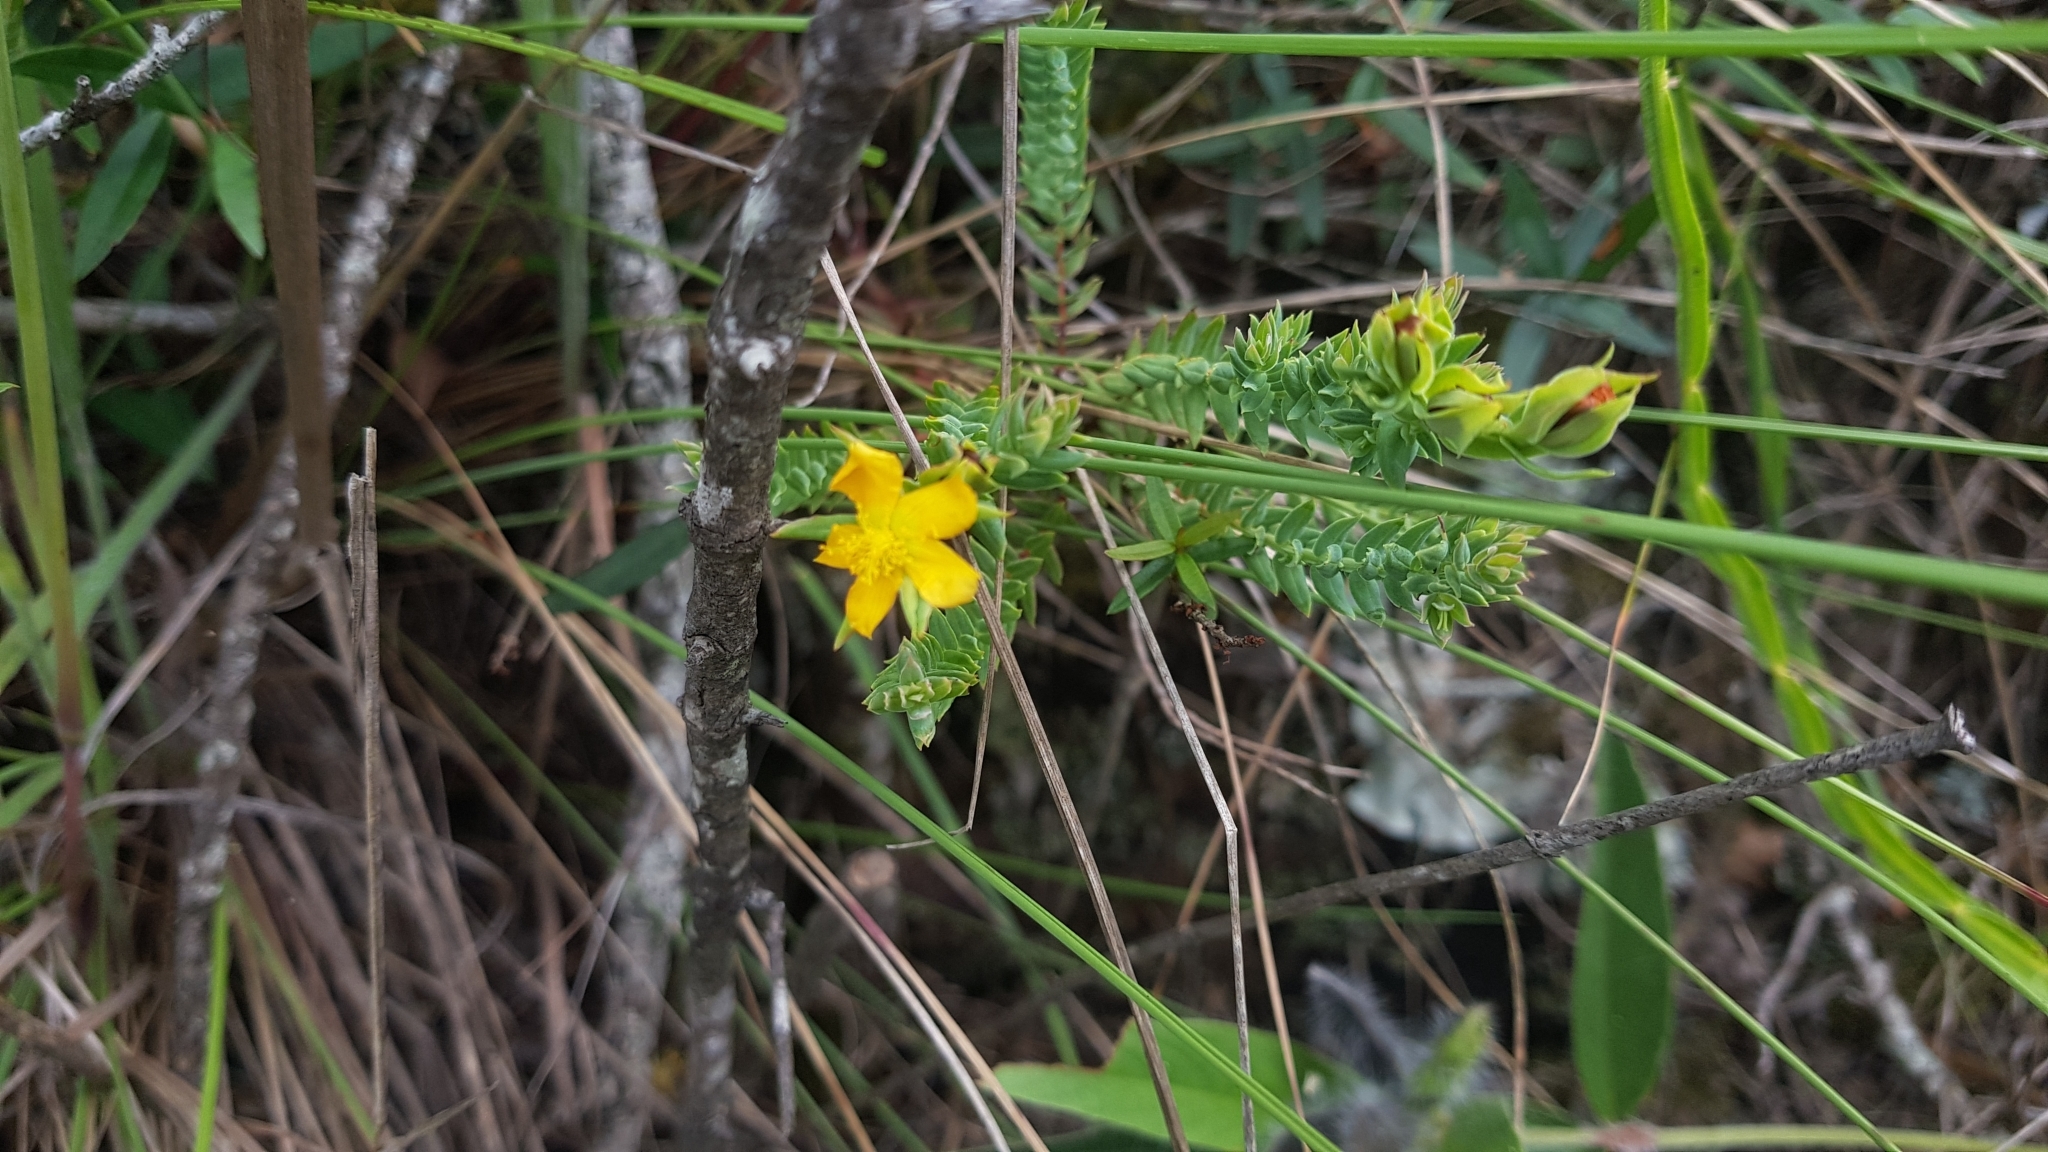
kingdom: Plantae
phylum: Tracheophyta
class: Magnoliopsida
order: Malpighiales
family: Hypericaceae
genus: Hypericum
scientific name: Hypericum cavernicola
